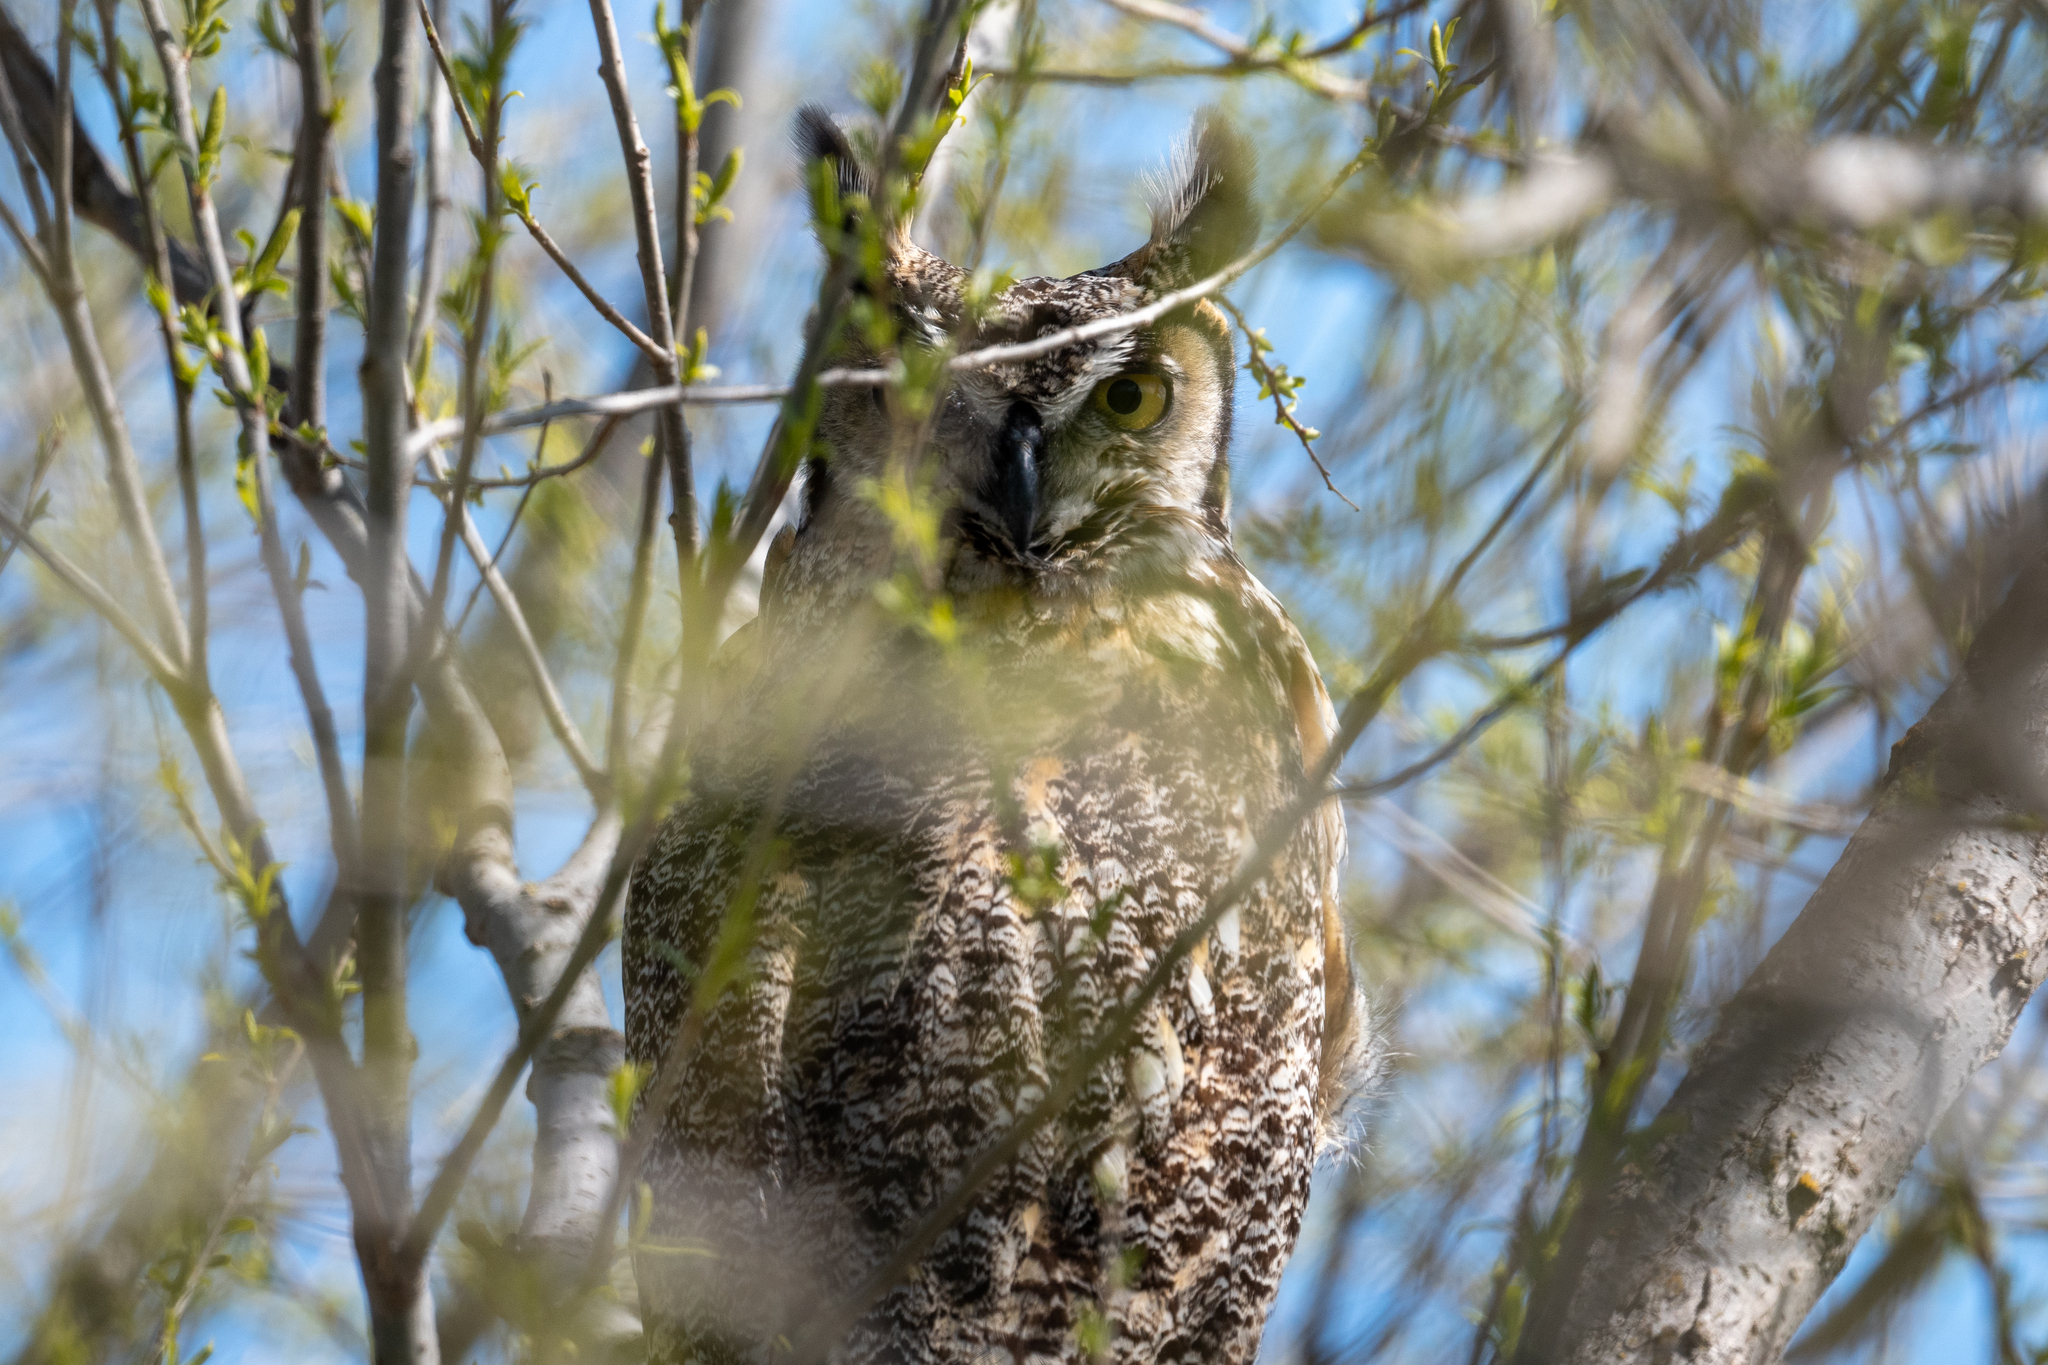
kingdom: Animalia
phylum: Chordata
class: Aves
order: Strigiformes
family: Strigidae
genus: Bubo
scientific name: Bubo virginianus
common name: Great horned owl
